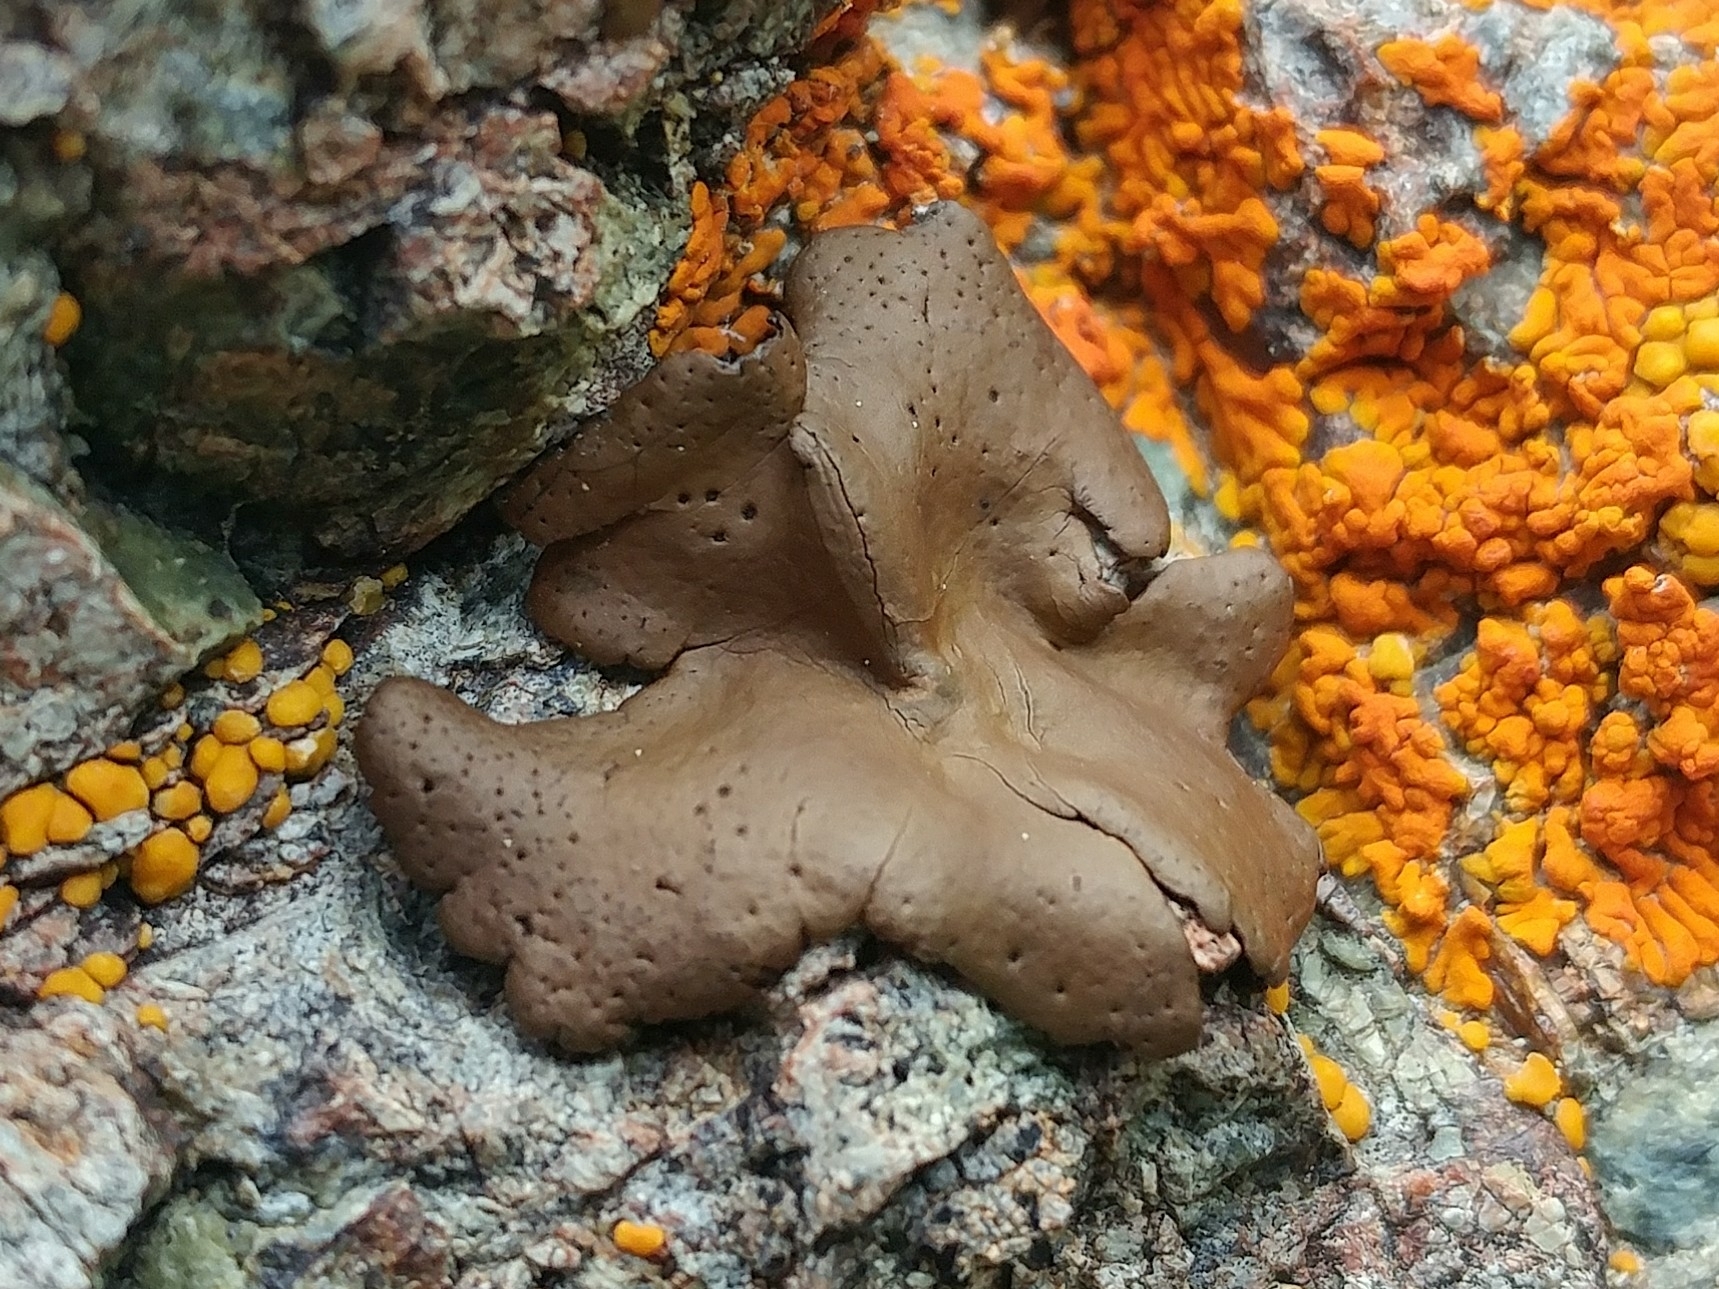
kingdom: Fungi
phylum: Ascomycota
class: Lecanoromycetes
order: Umbilicariales
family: Umbilicariaceae
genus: Umbilicaria
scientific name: Umbilicaria phaea
